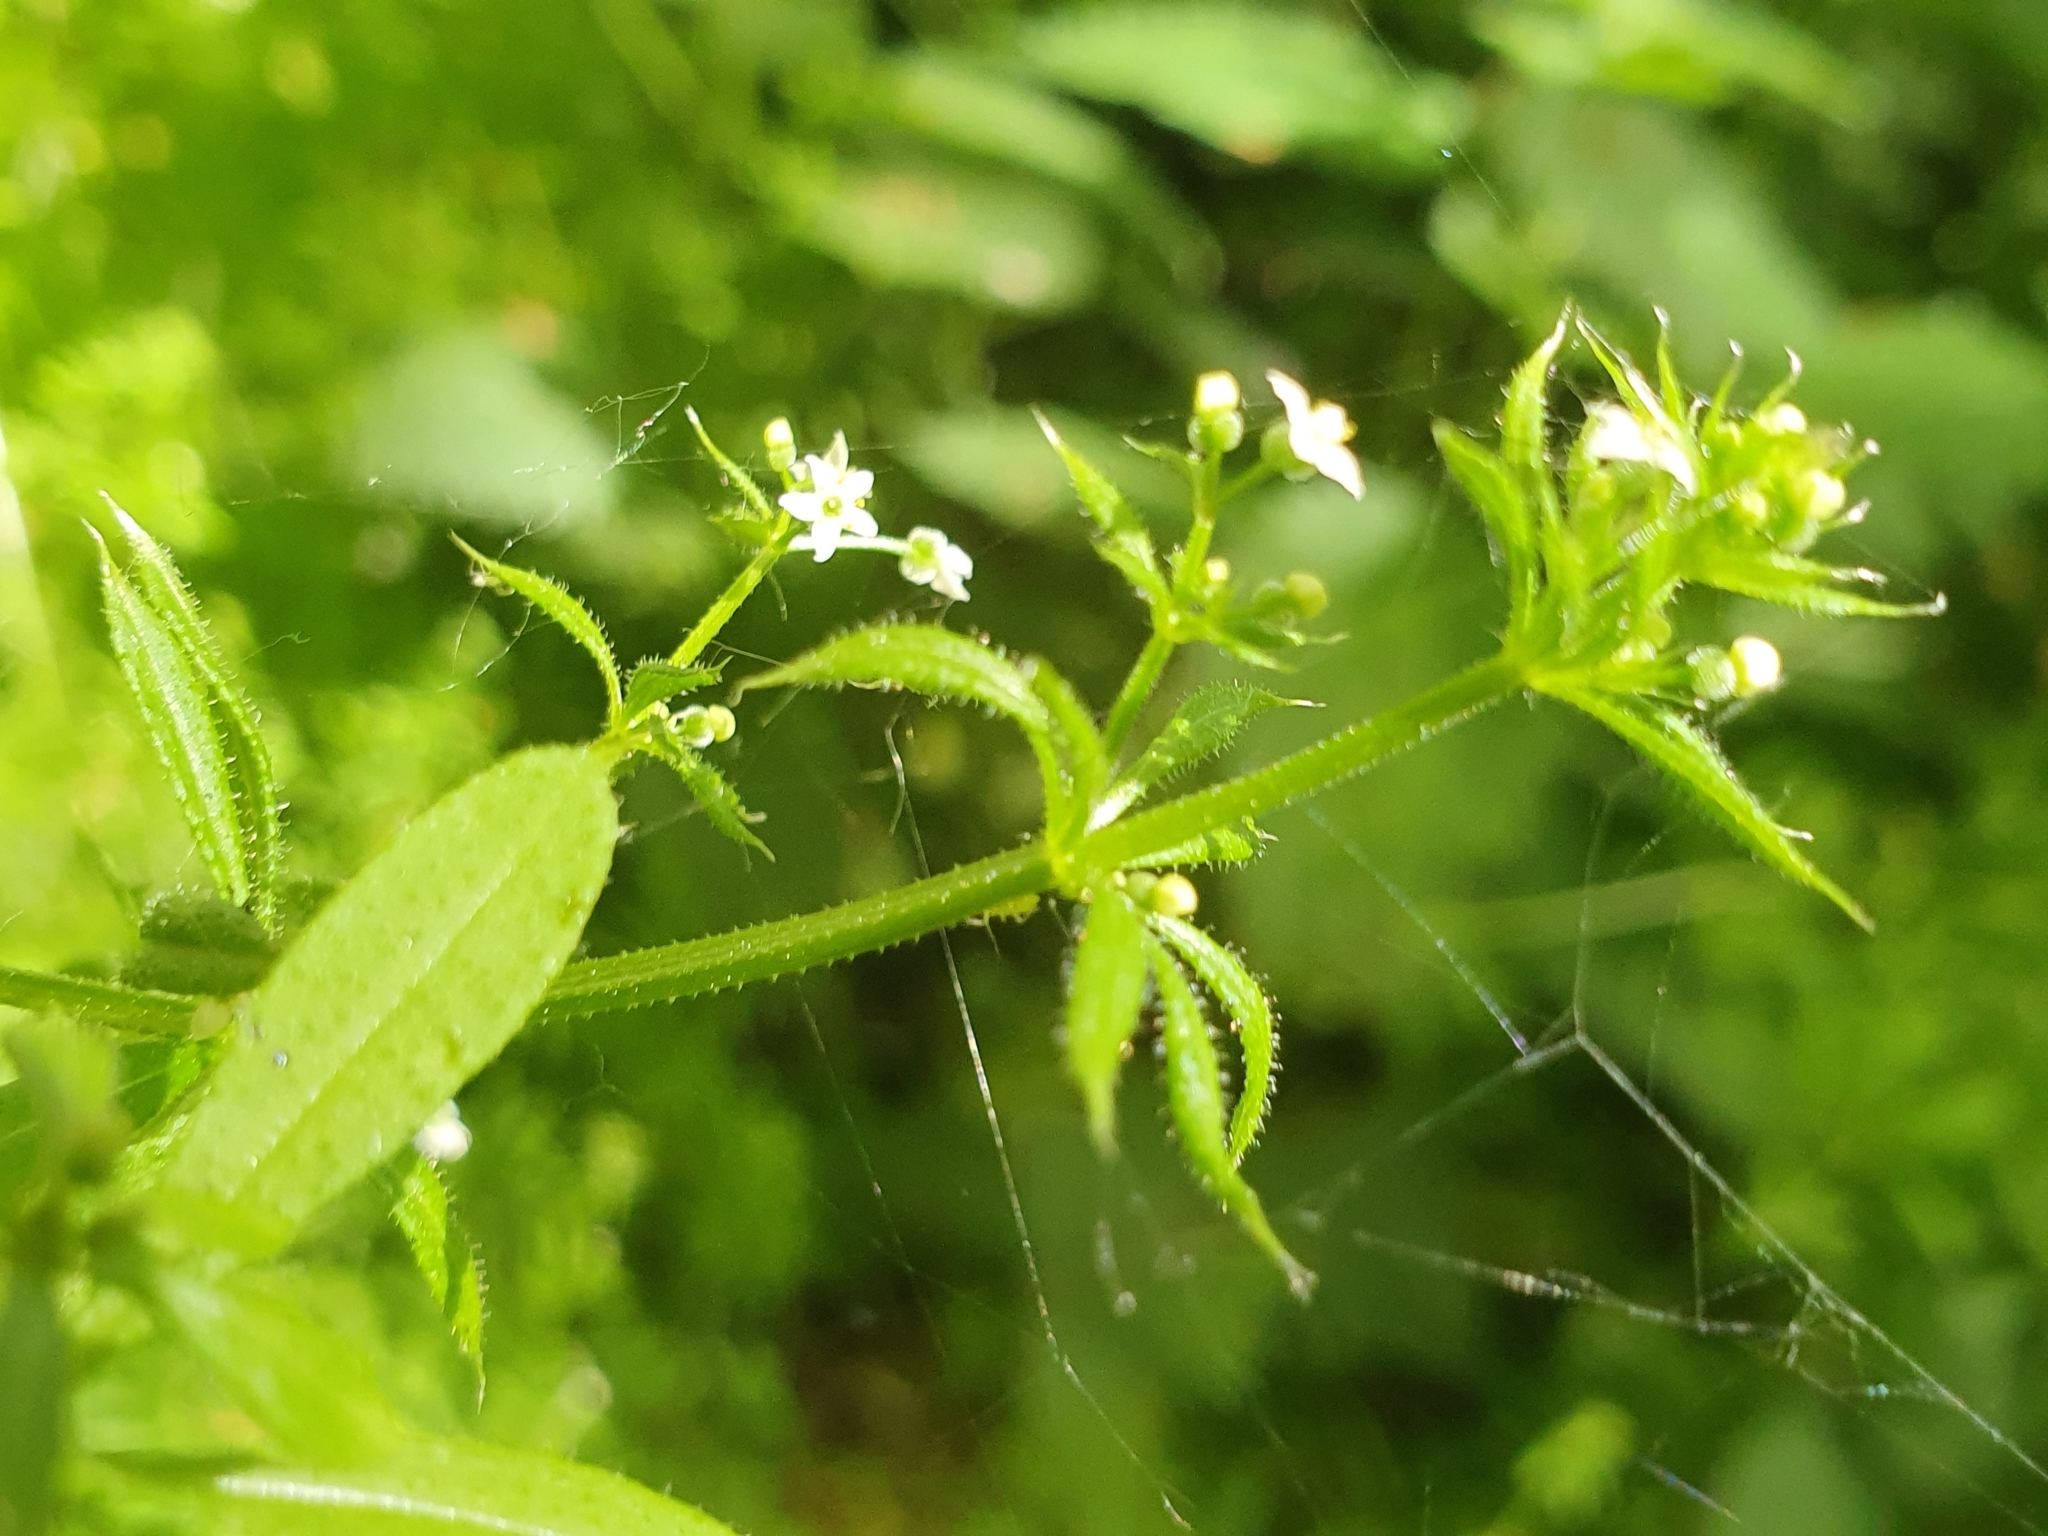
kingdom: Plantae
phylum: Tracheophyta
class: Magnoliopsida
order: Gentianales
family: Rubiaceae
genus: Galium
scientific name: Galium aparine
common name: Cleavers
